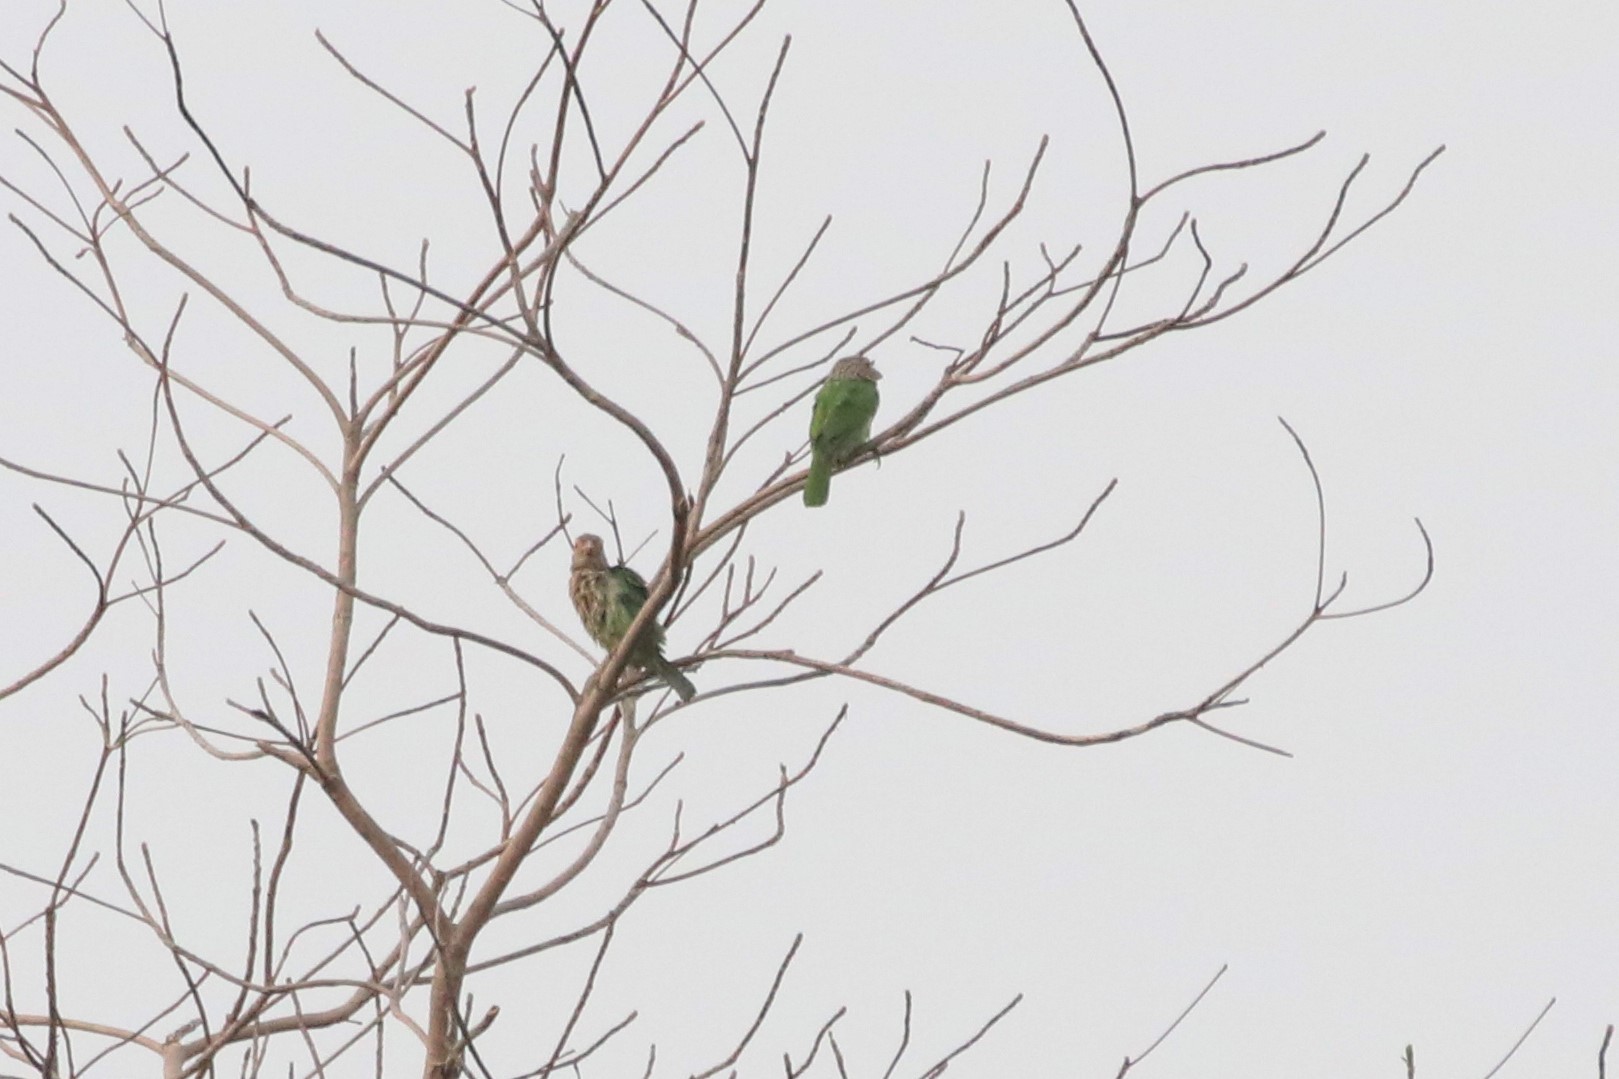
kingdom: Animalia
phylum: Chordata
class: Aves
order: Piciformes
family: Megalaimidae
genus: Psilopogon
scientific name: Psilopogon lineatus
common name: Lineated barbet
